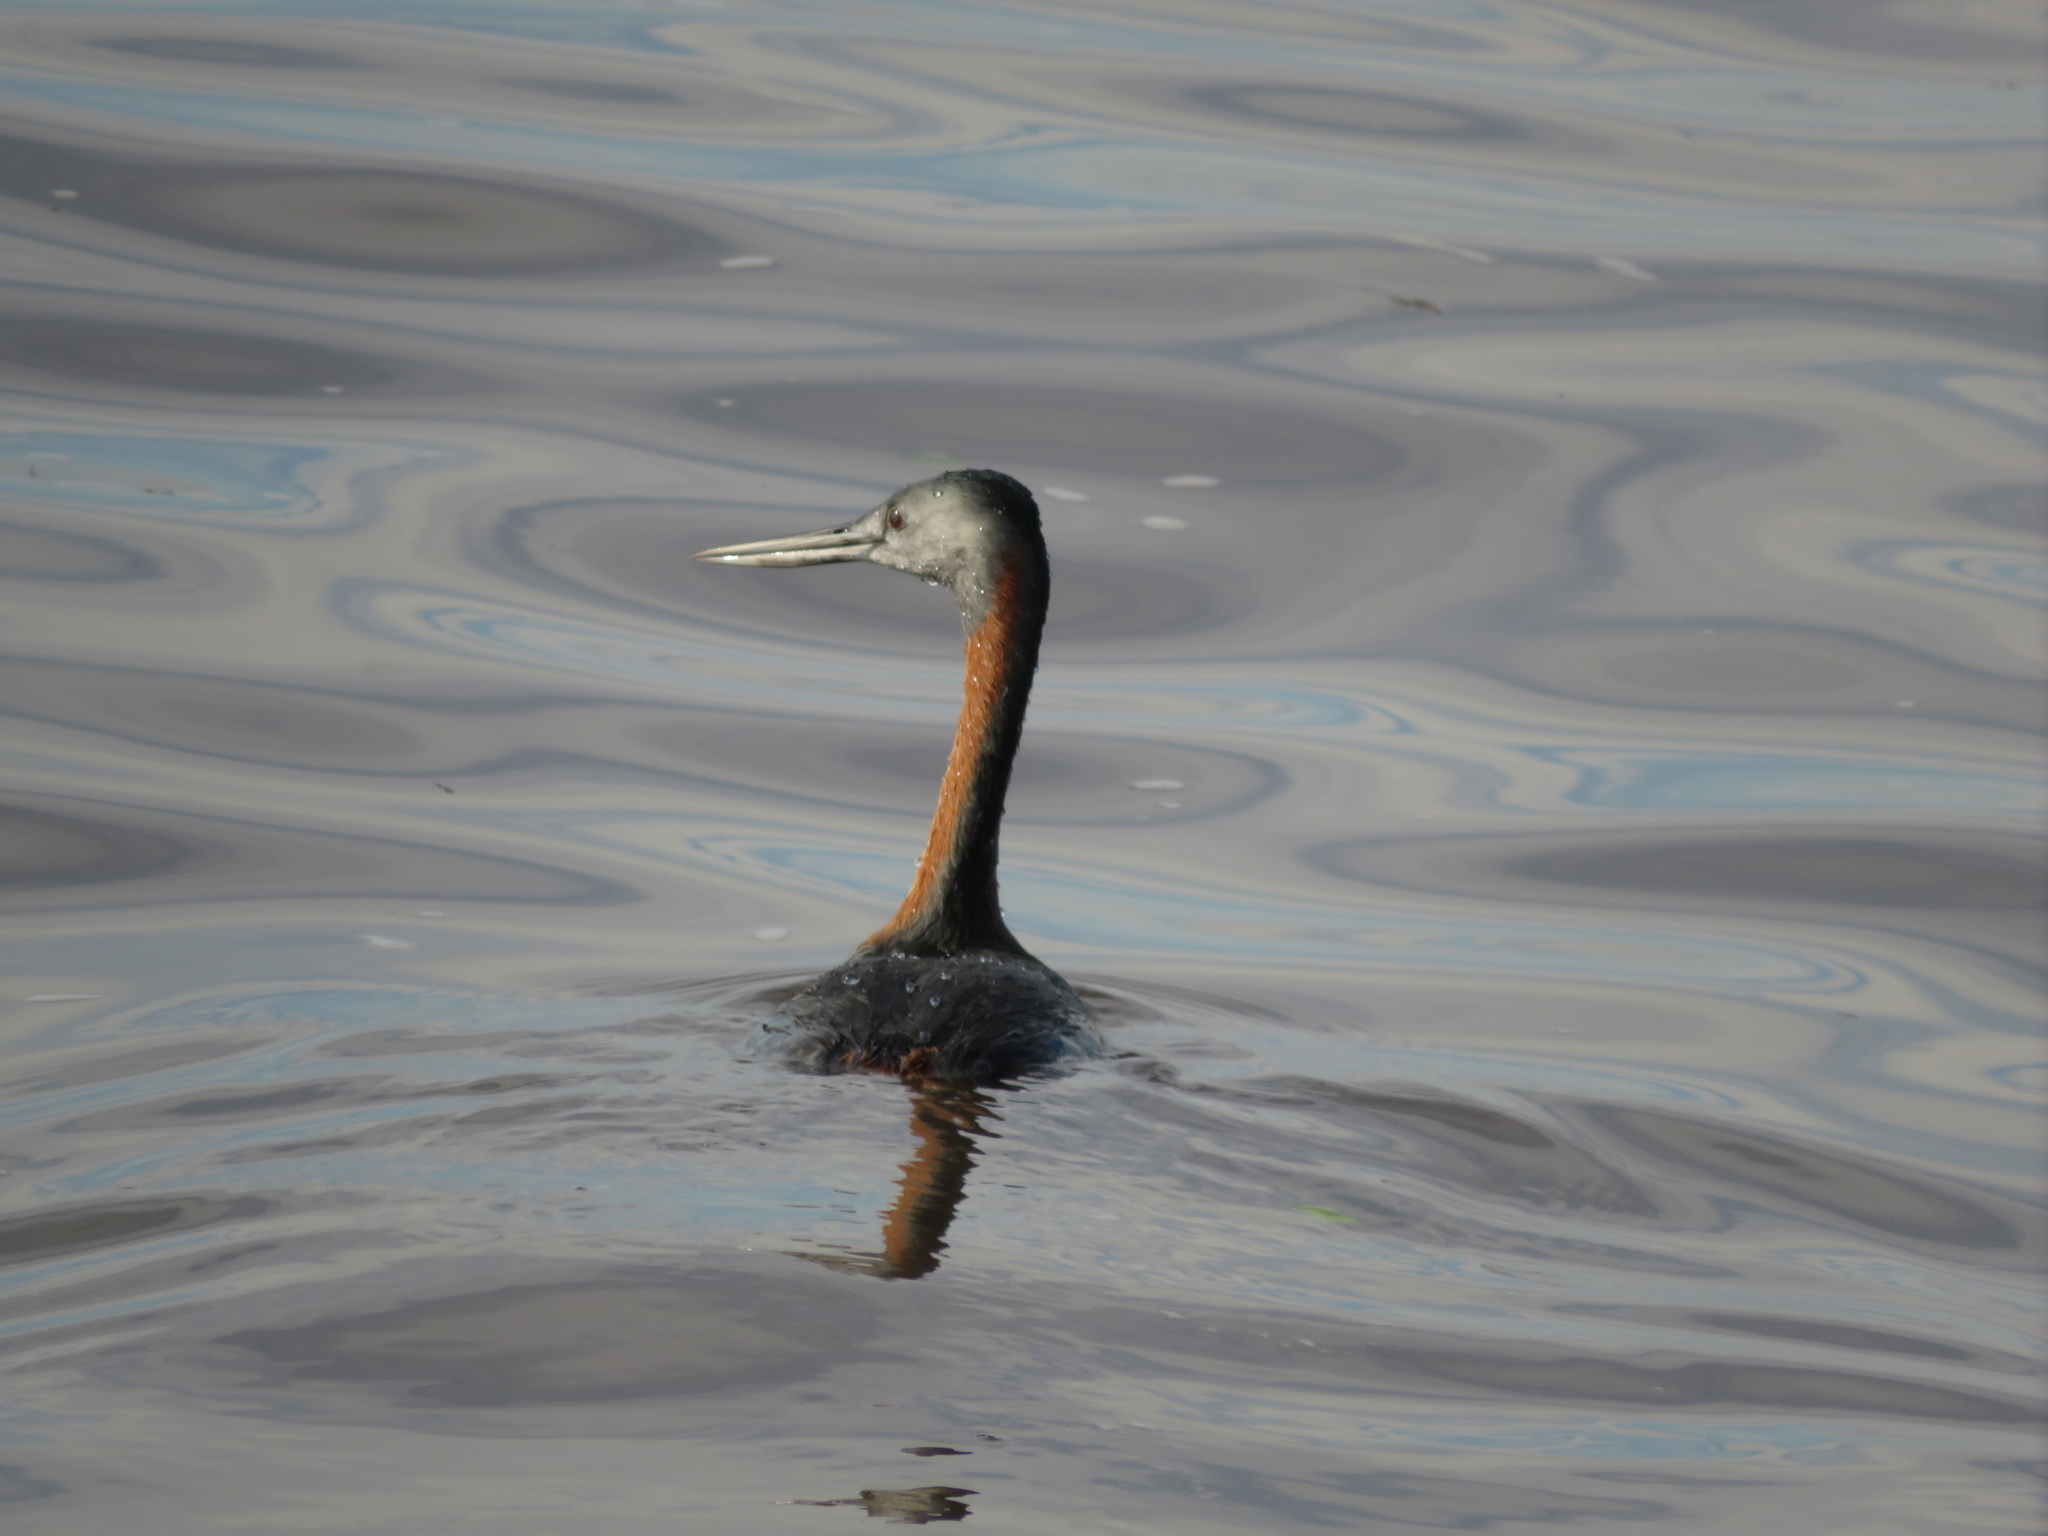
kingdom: Animalia
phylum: Chordata
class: Aves
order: Podicipediformes
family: Podicipedidae
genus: Podiceps
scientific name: Podiceps major
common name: Great grebe
